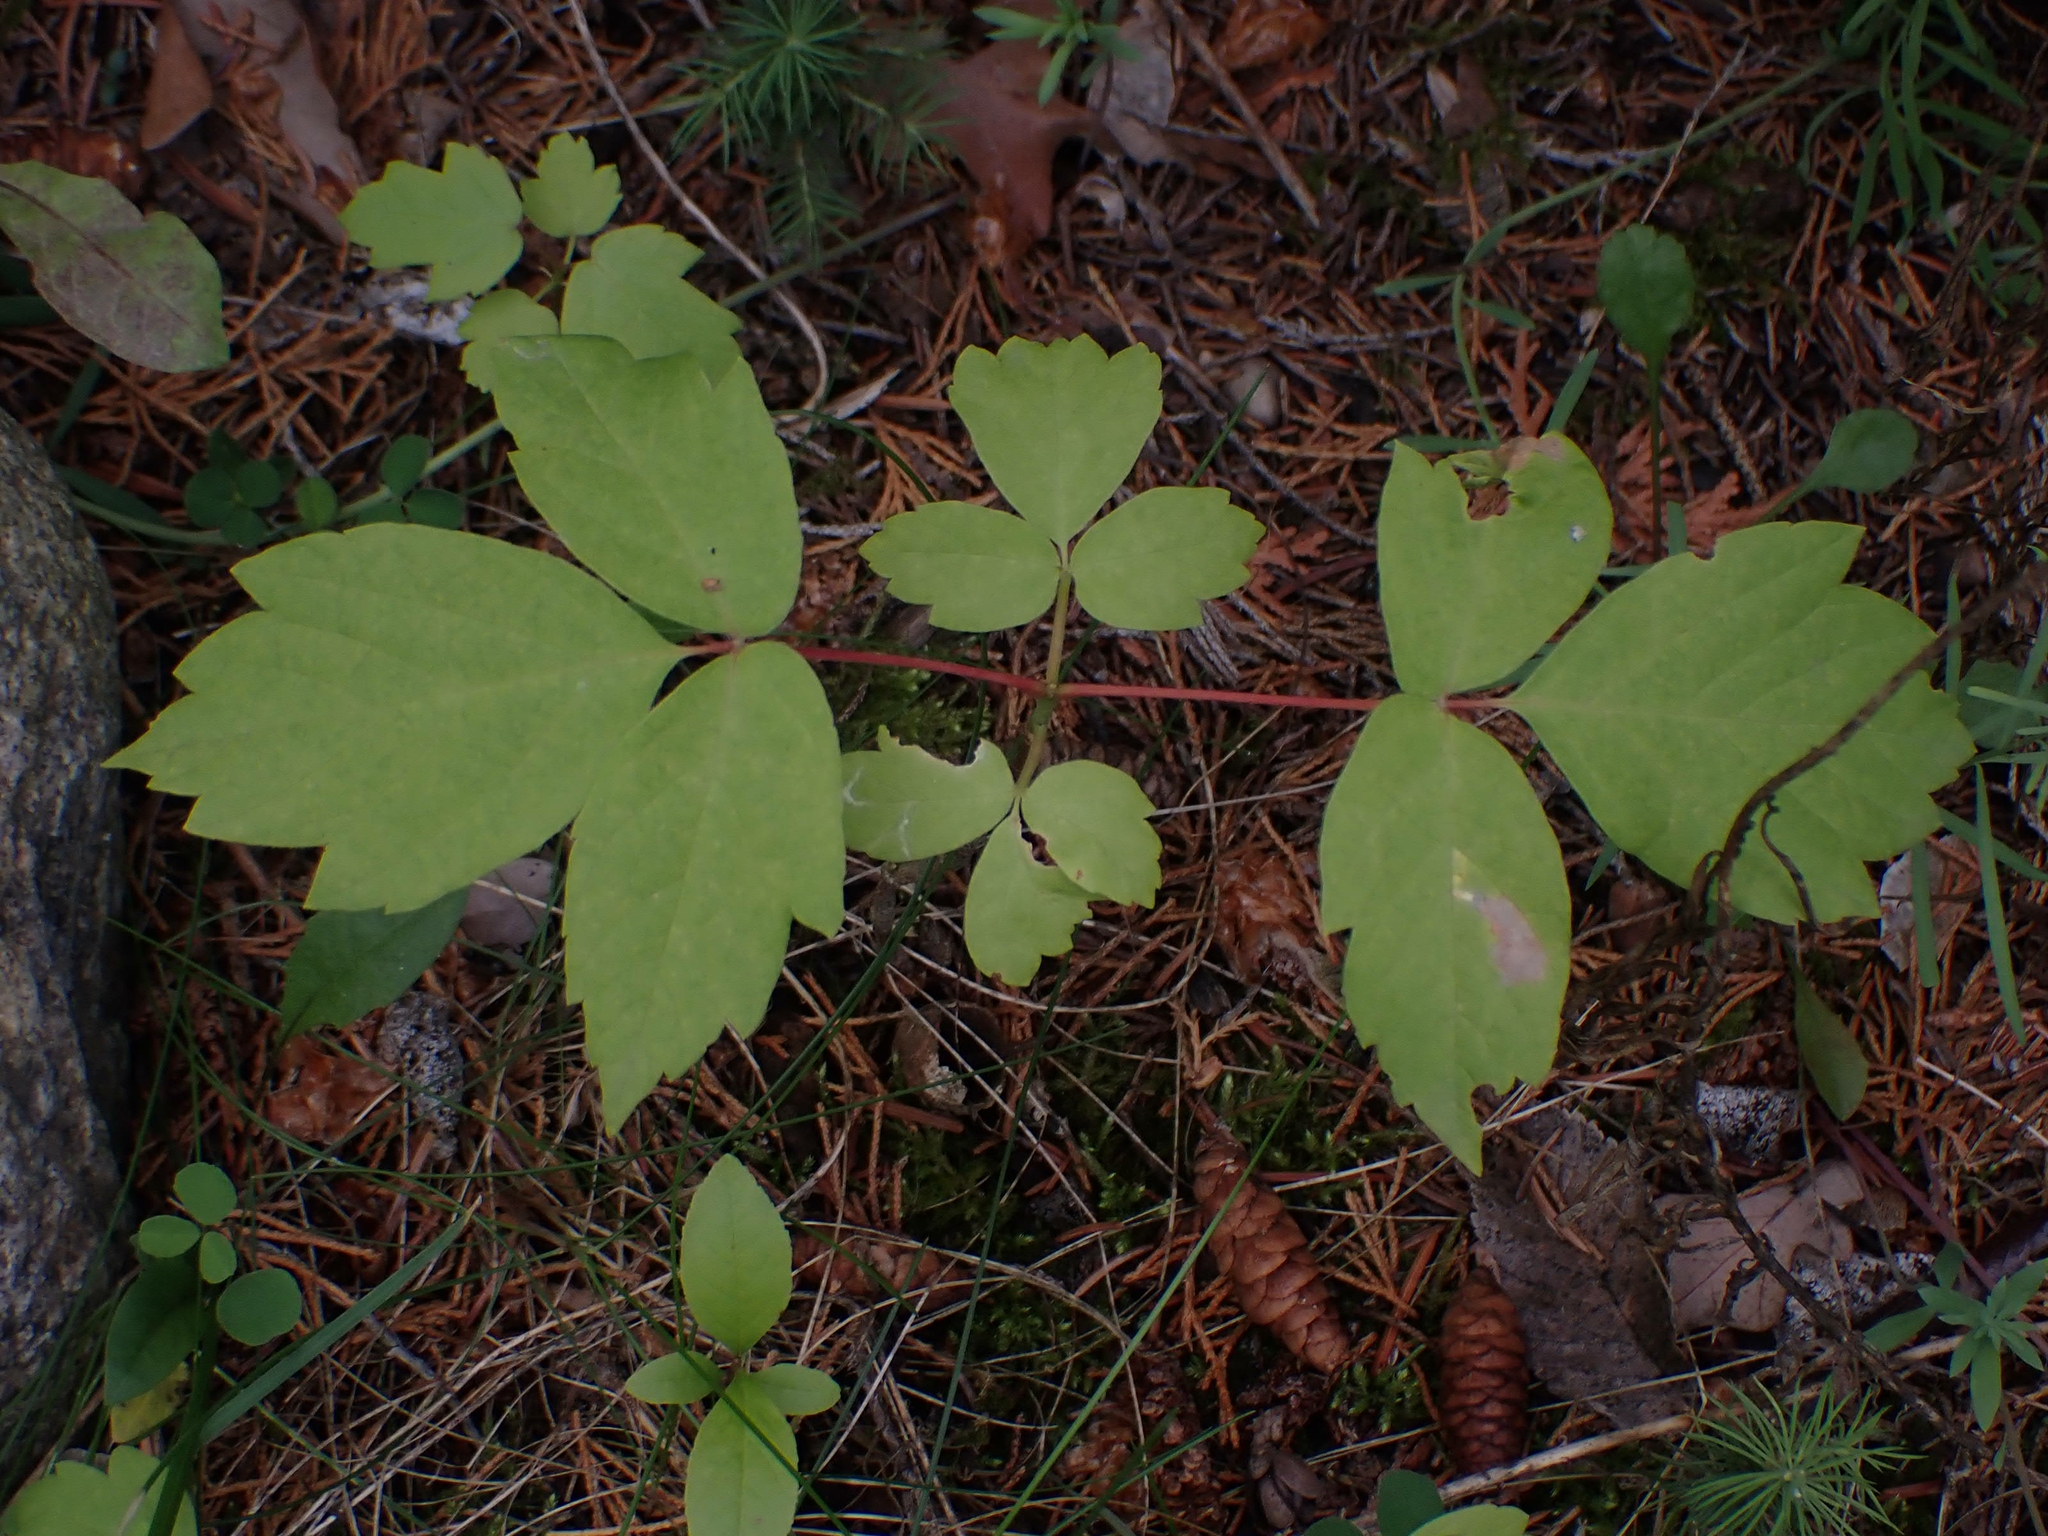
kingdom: Plantae
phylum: Tracheophyta
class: Magnoliopsida
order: Sapindales
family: Sapindaceae
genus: Acer
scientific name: Acer negundo
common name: Ashleaf maple
